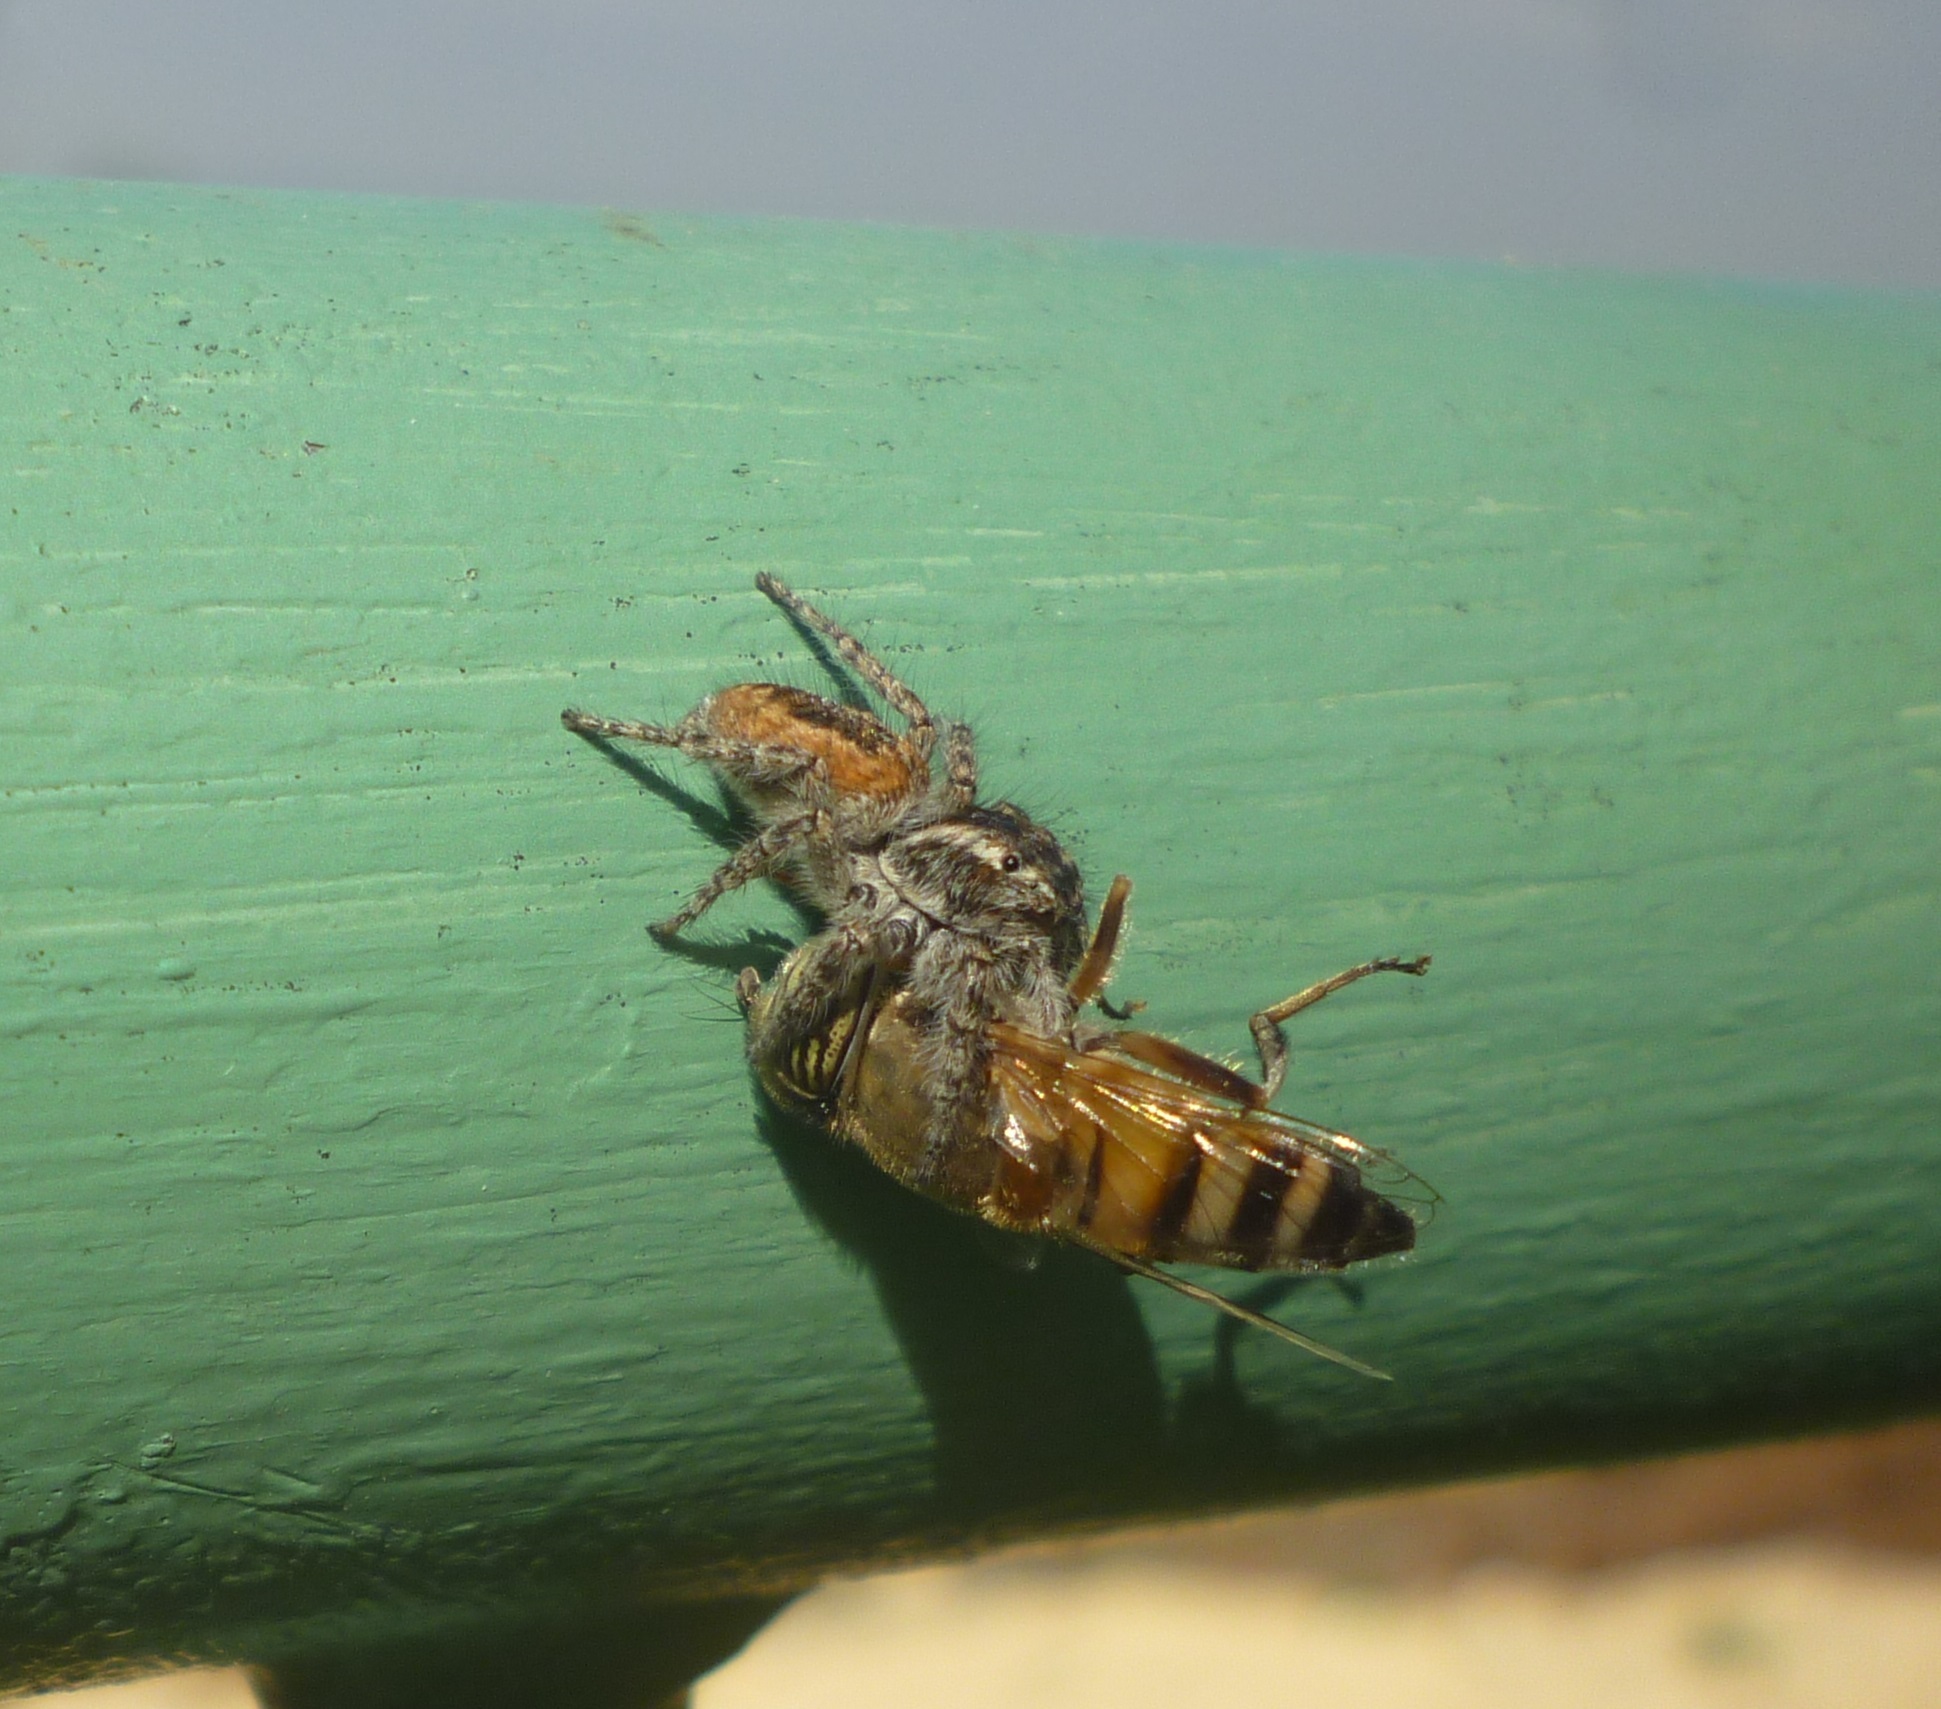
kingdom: Animalia
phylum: Arthropoda
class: Insecta
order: Diptera
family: Syrphidae
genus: Eristalinus
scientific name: Eristalinus taeniops
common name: Syrphid fly
